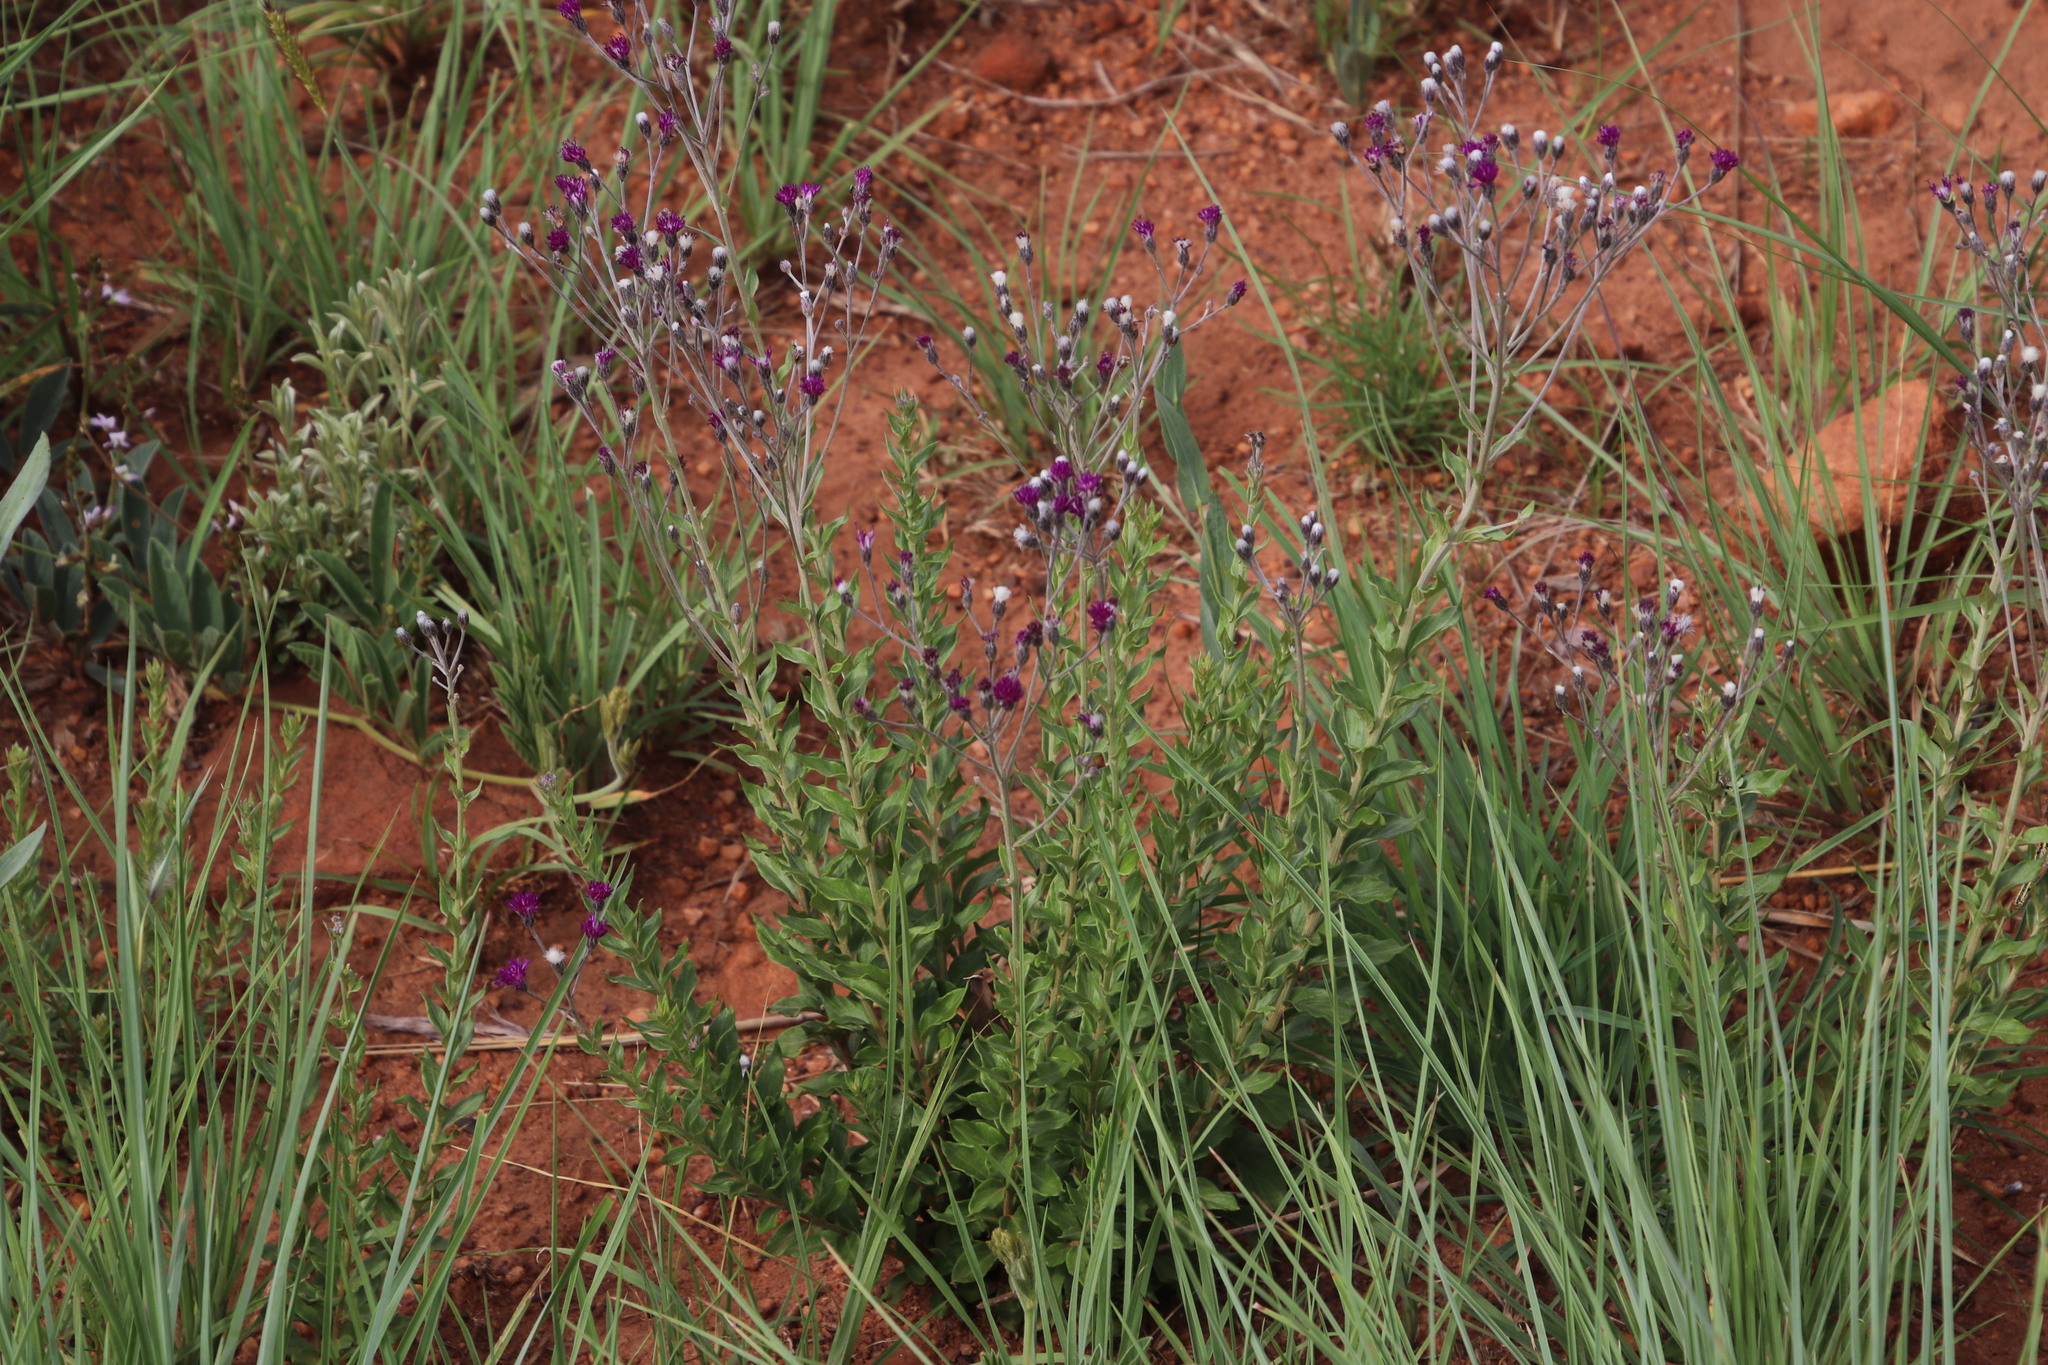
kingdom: Plantae
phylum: Tracheophyta
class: Magnoliopsida
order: Asterales
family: Asteraceae
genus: Hilliardiella
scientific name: Hilliardiella aristata
